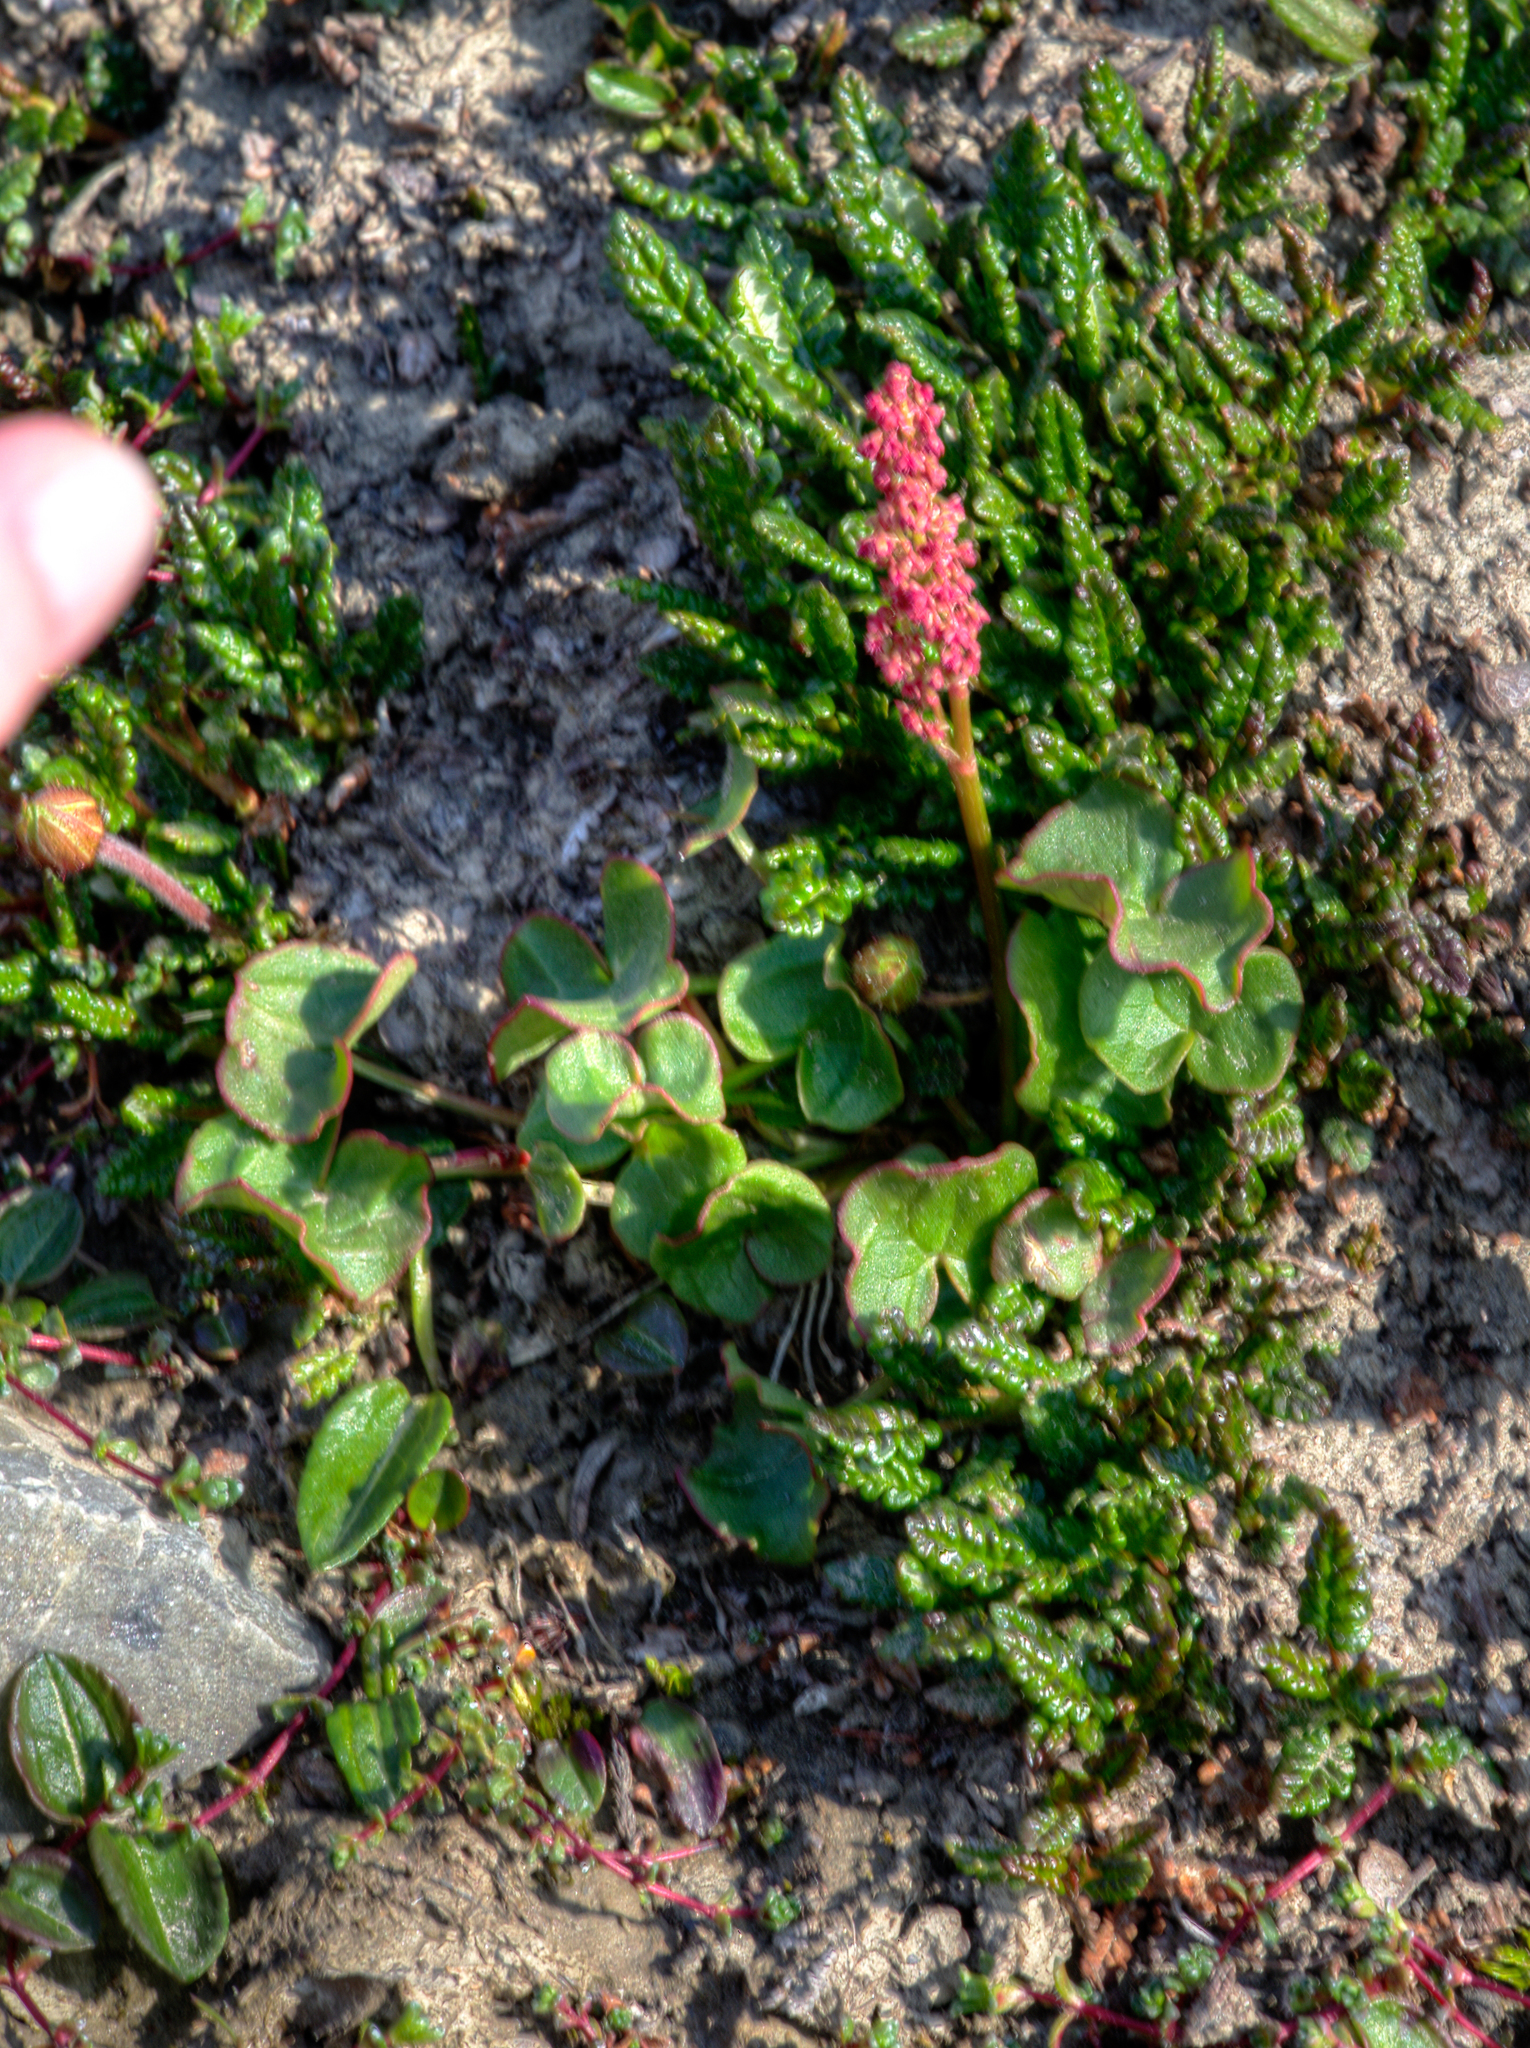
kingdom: Plantae
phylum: Tracheophyta
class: Magnoliopsida
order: Caryophyllales
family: Polygonaceae
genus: Oxyria
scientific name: Oxyria digyna
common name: Alpine mountain-sorrel
